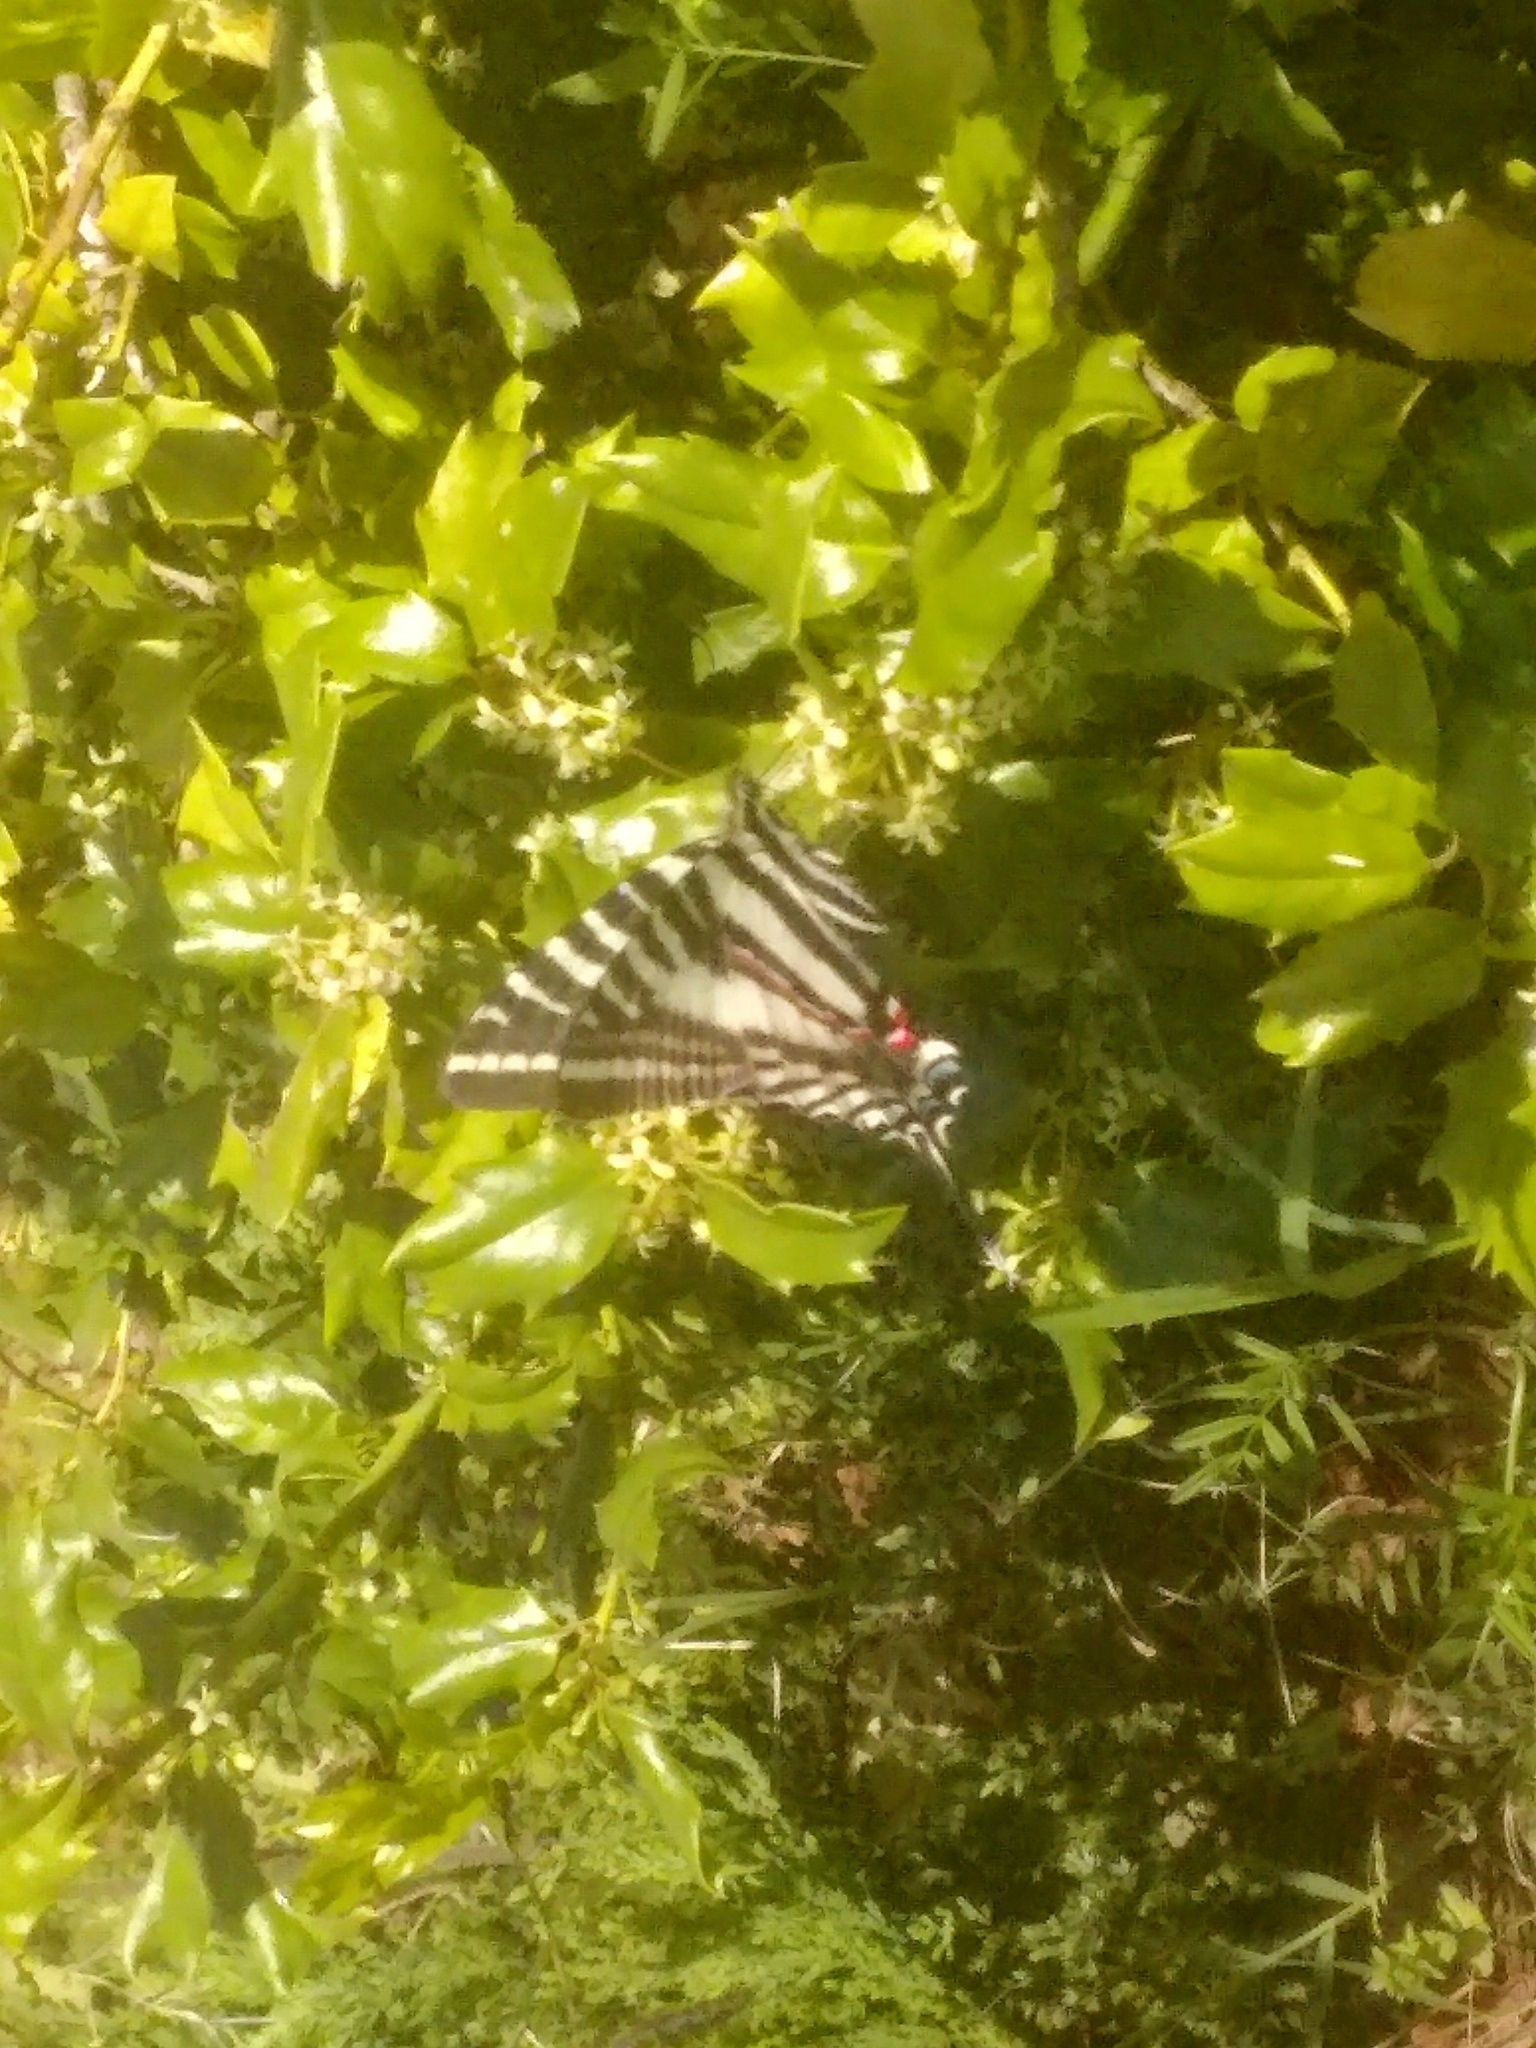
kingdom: Animalia
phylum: Arthropoda
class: Insecta
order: Lepidoptera
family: Papilionidae
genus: Protographium
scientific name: Protographium marcellus
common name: Zebra swallowtail
